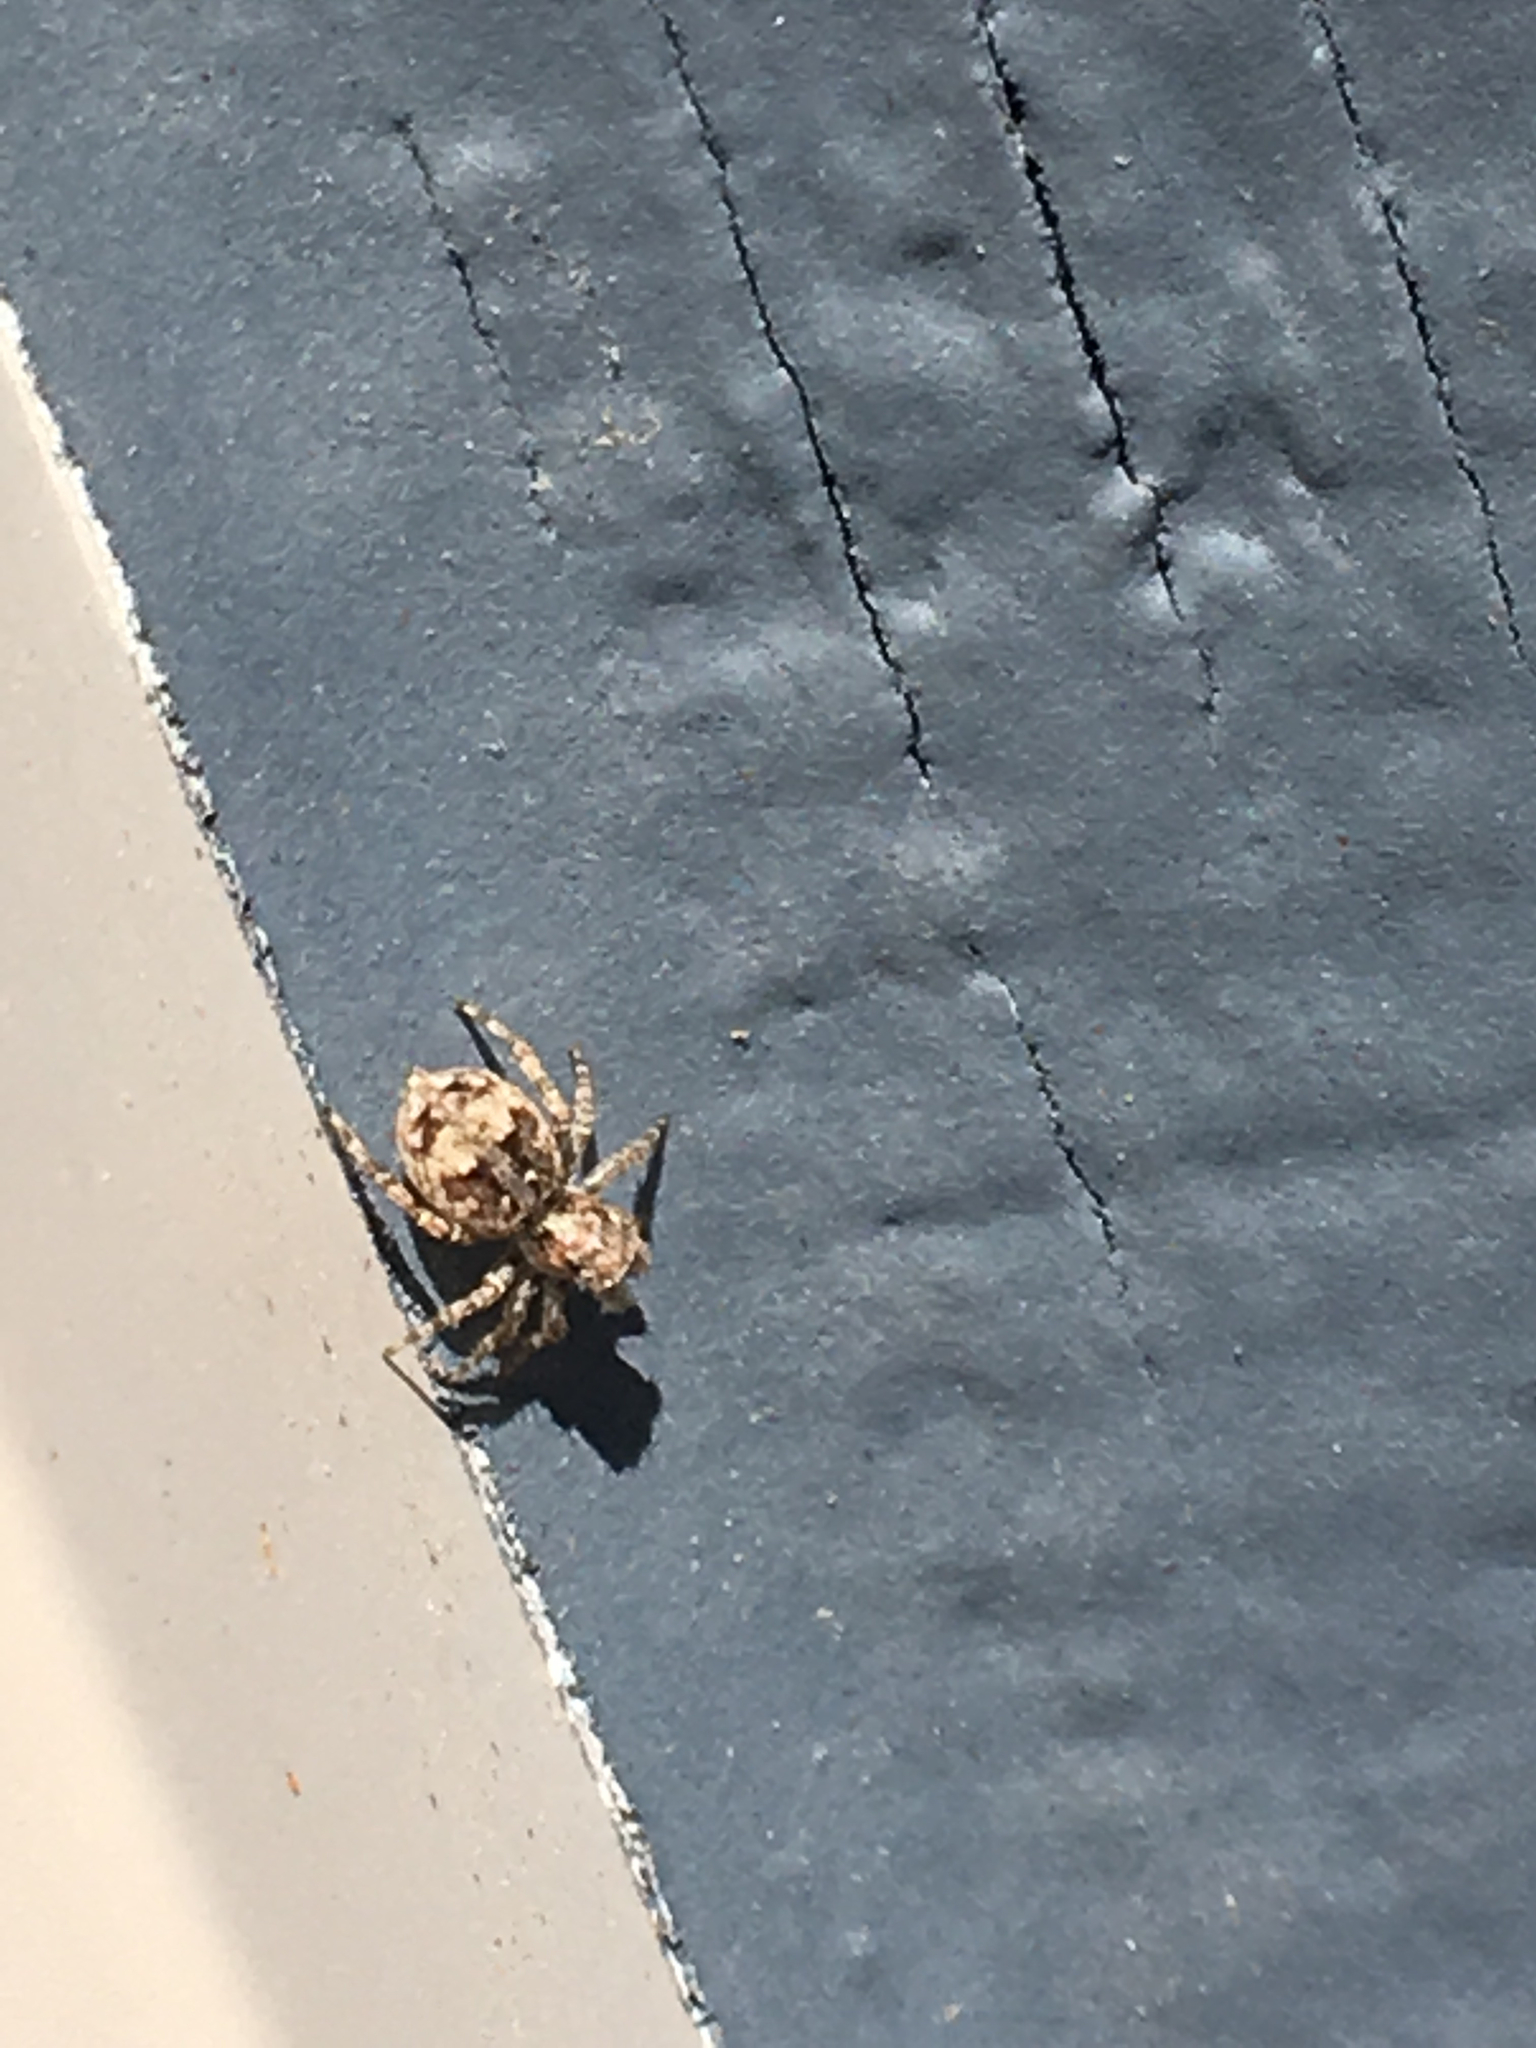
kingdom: Animalia
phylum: Arthropoda
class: Arachnida
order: Araneae
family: Salticidae
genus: Attulus
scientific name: Attulus fasciger
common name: Asiatic wall jumping spider
